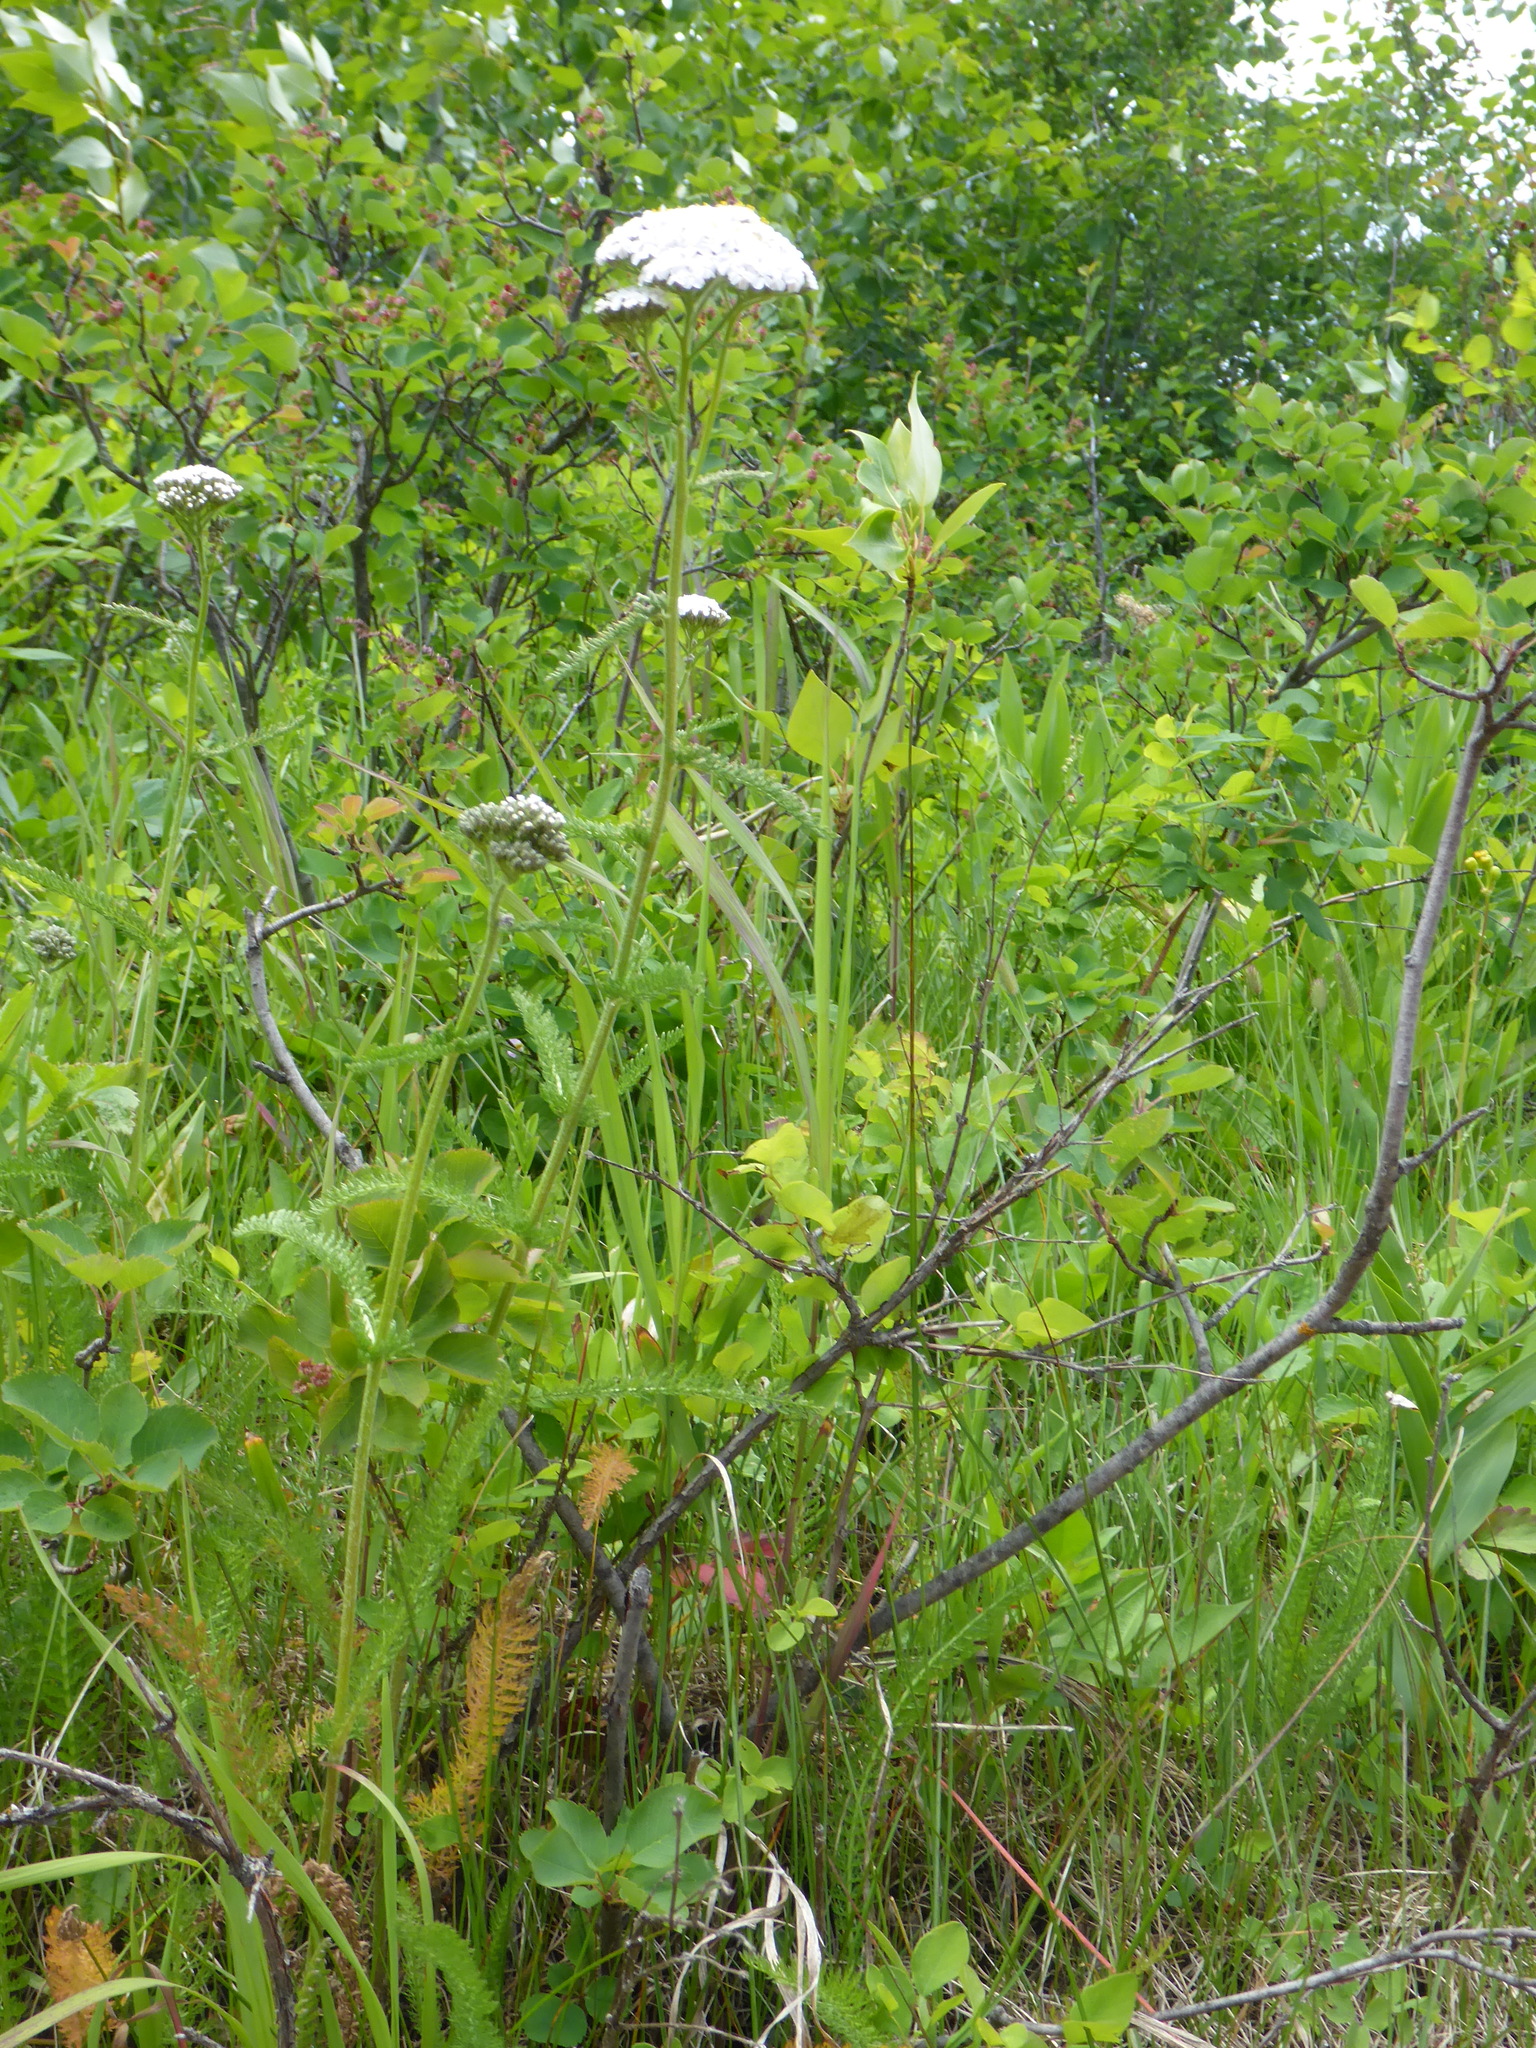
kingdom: Plantae
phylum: Tracheophyta
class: Magnoliopsida
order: Asterales
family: Asteraceae
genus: Achillea
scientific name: Achillea millefolium
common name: Yarrow
